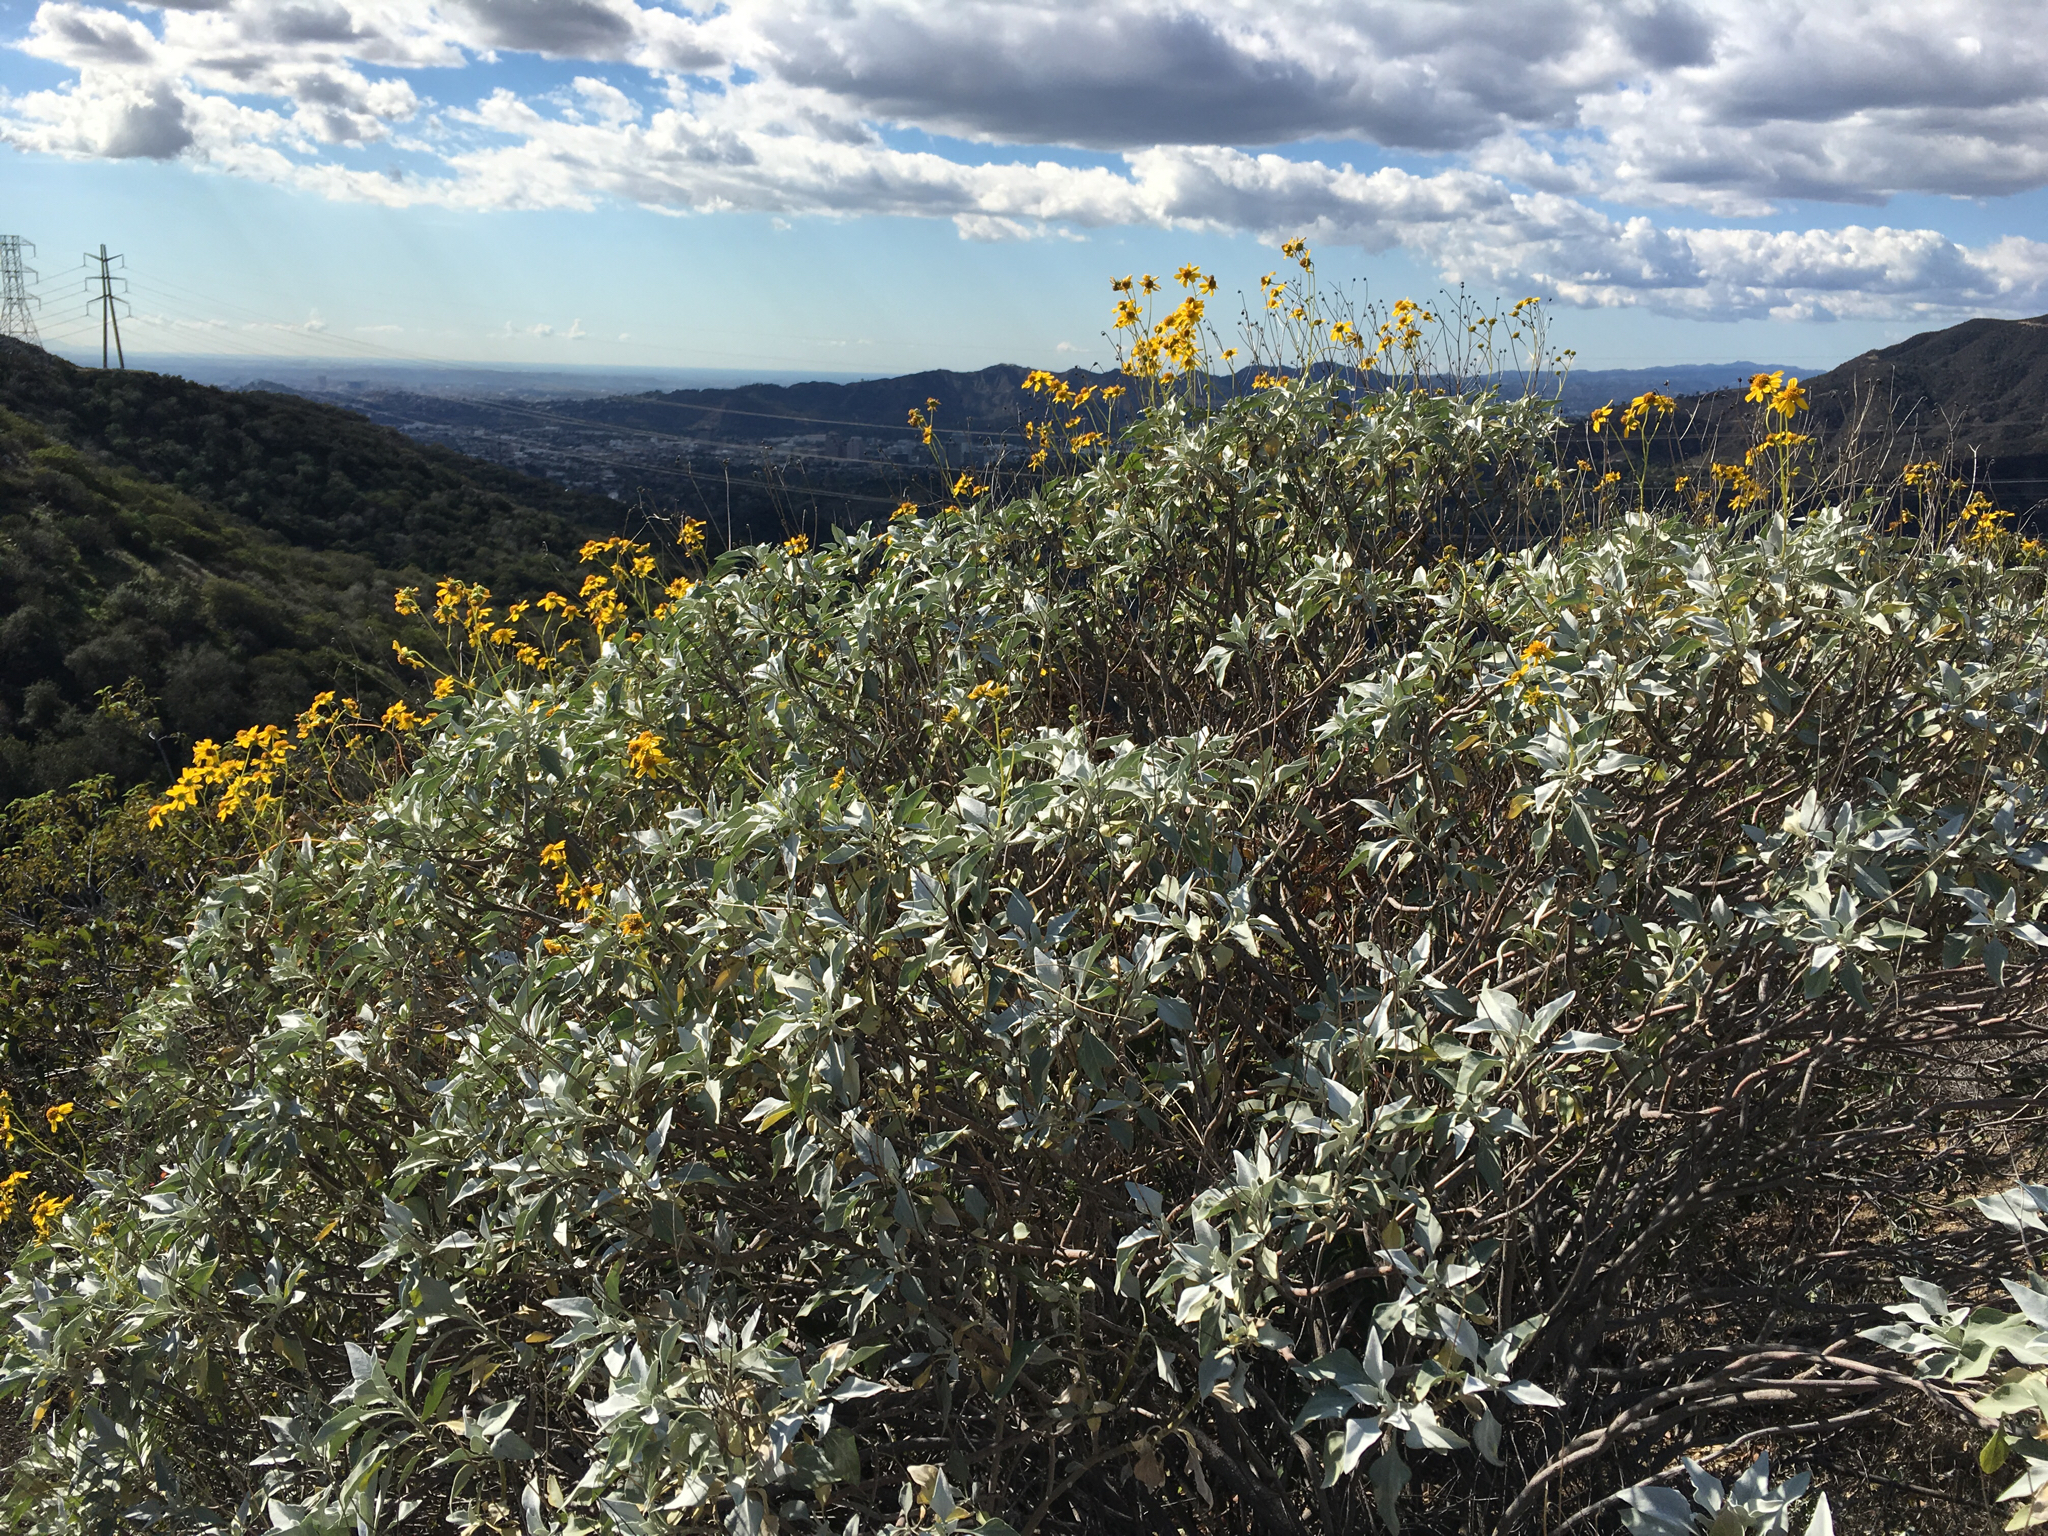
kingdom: Plantae
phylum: Tracheophyta
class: Magnoliopsida
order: Asterales
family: Asteraceae
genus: Encelia
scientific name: Encelia farinosa
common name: Brittlebush
